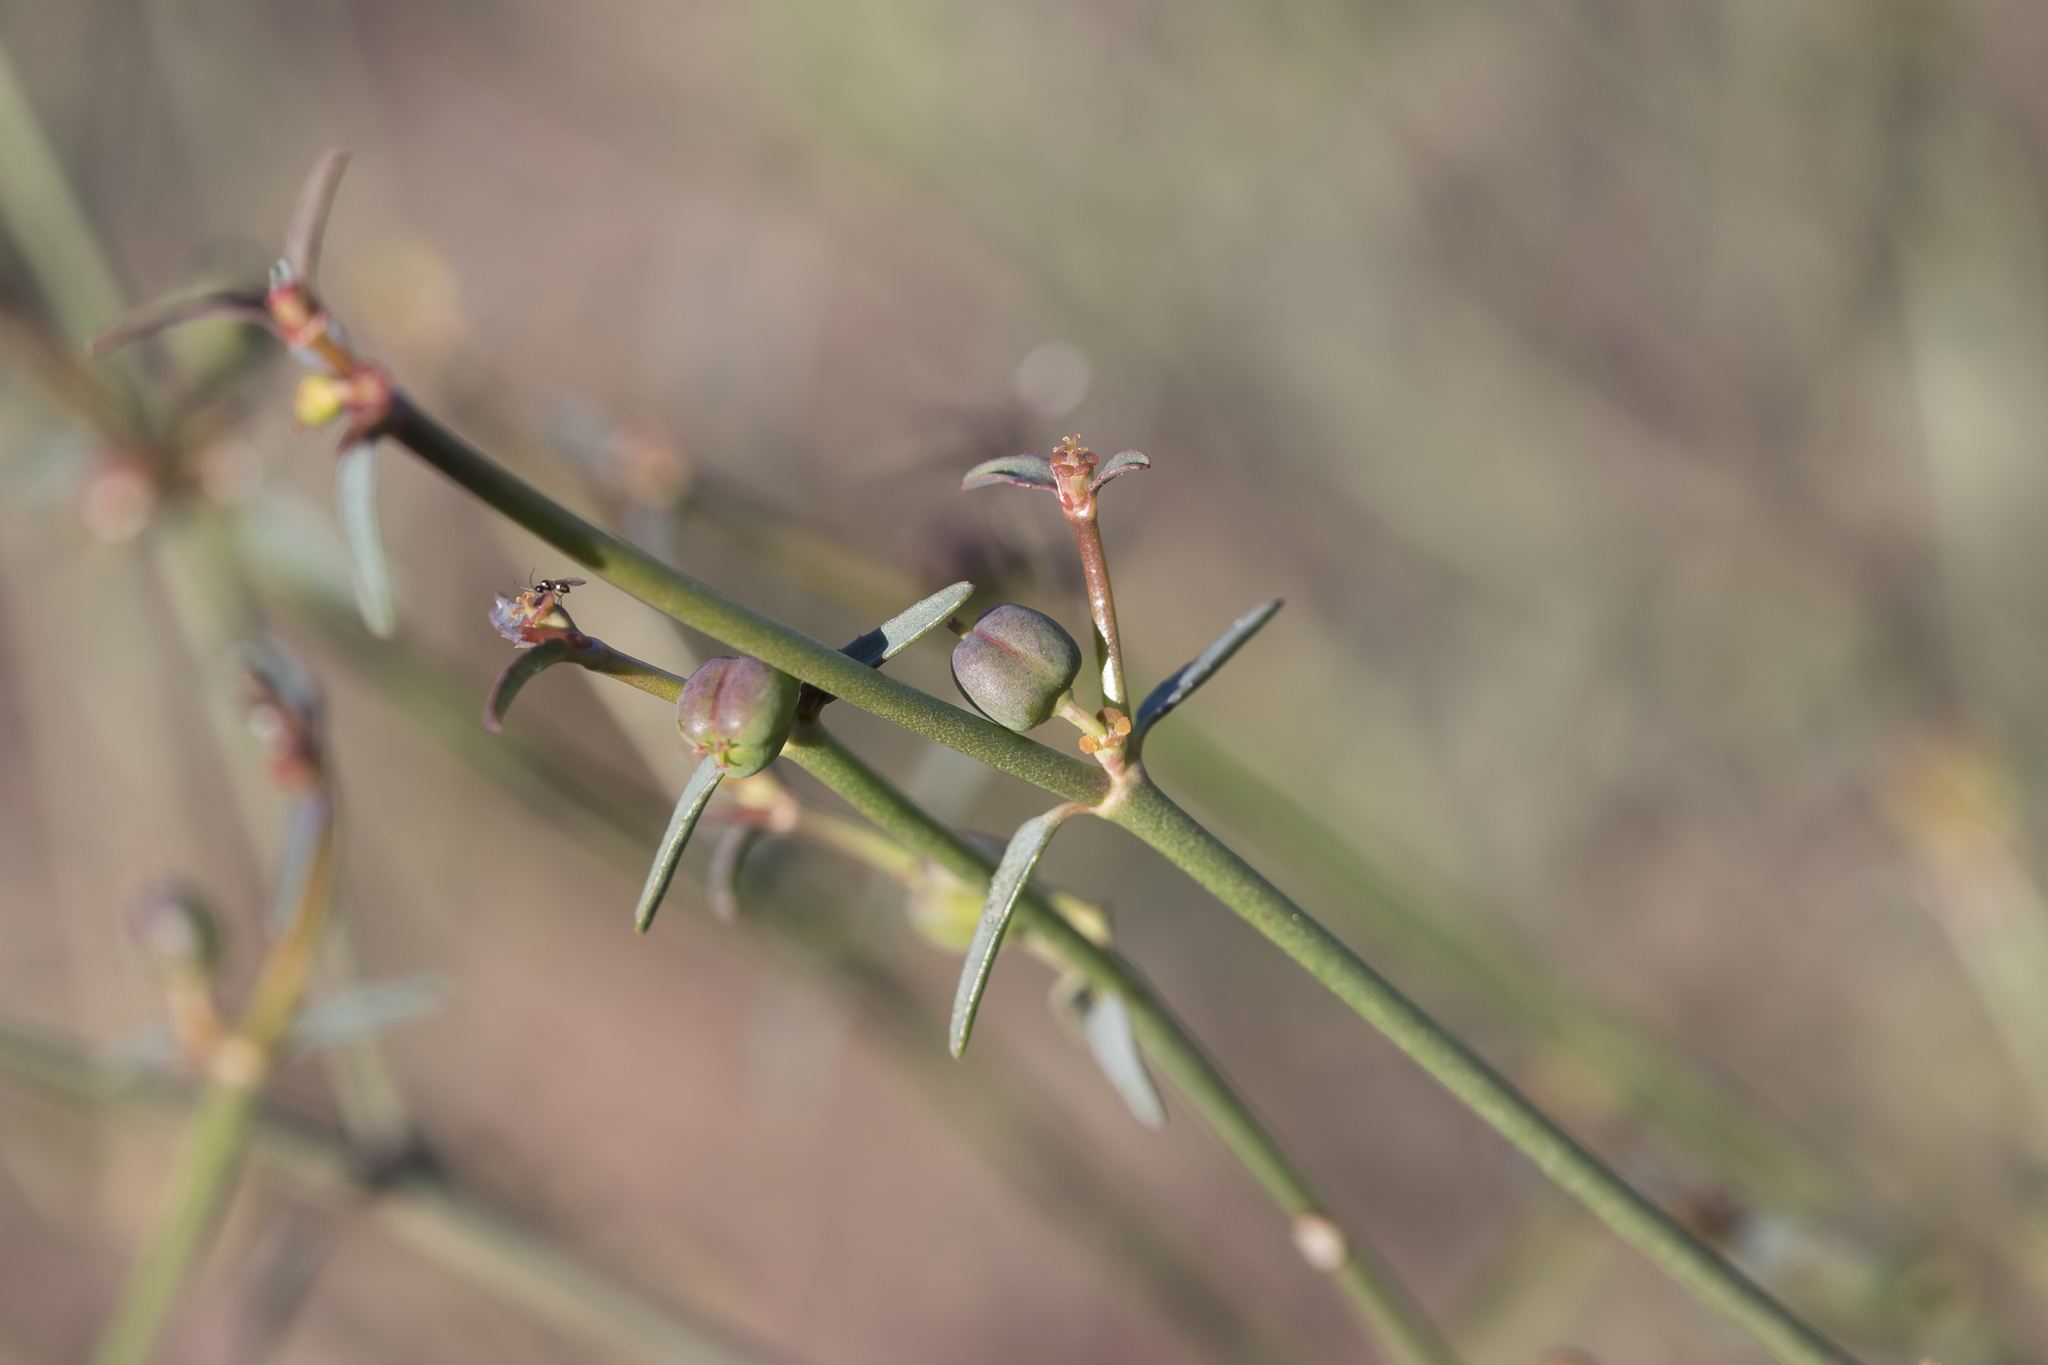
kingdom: Plantae
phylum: Tracheophyta
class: Magnoliopsida
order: Malpighiales
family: Euphorbiaceae
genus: Euphorbia
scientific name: Euphorbia tannensis
